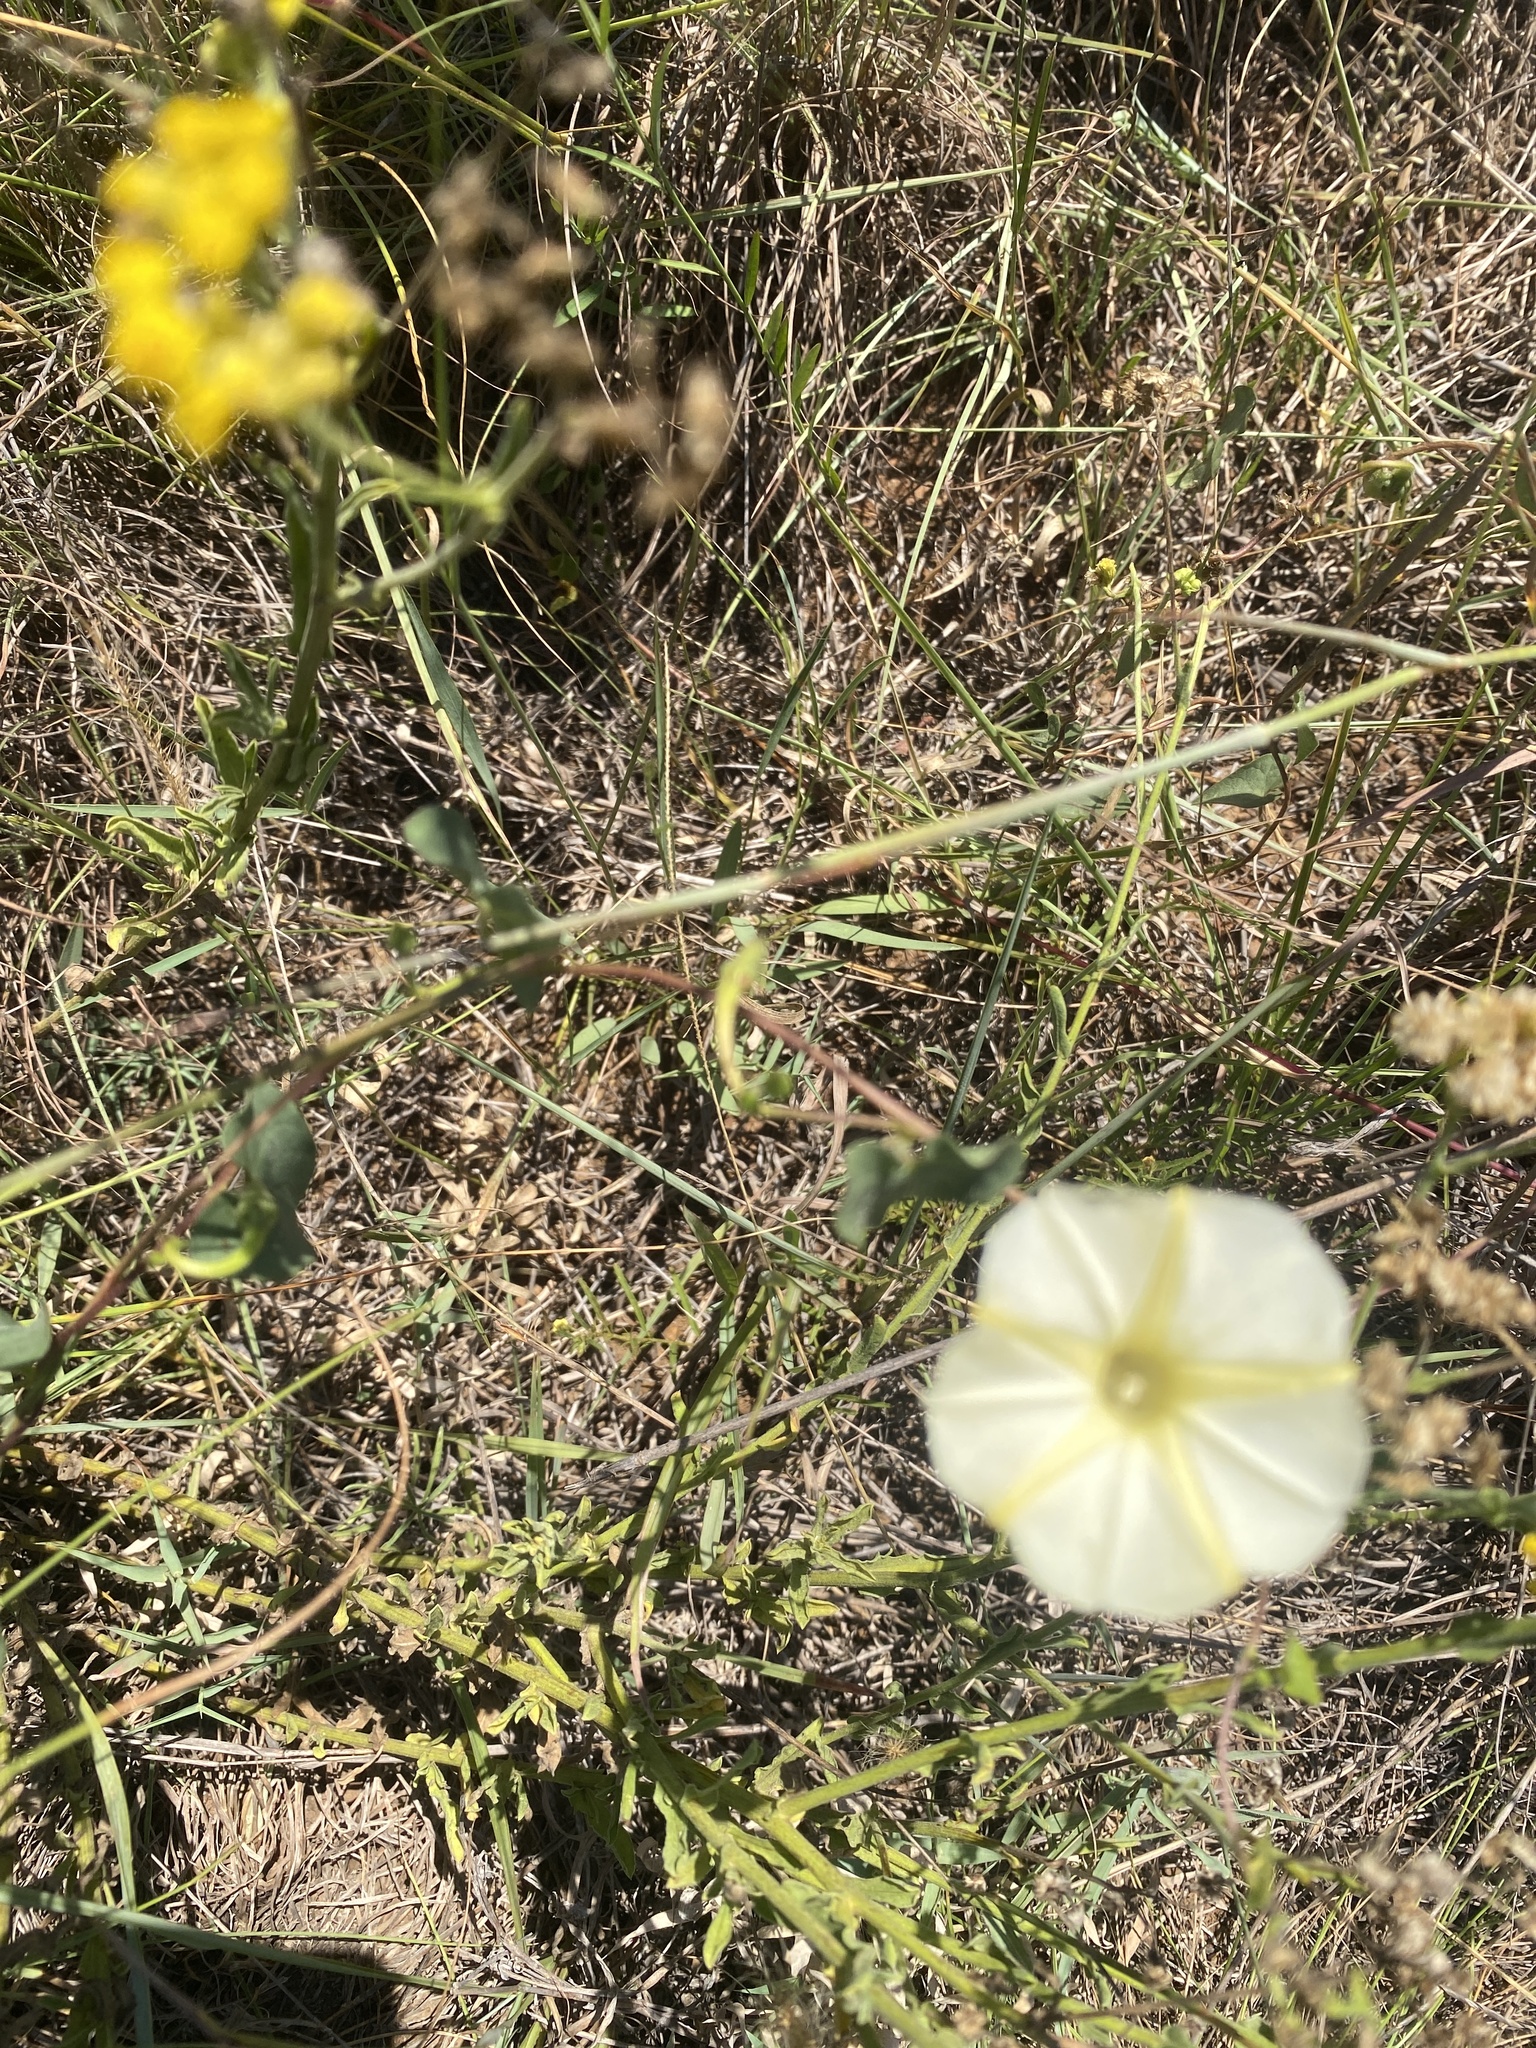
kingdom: Plantae
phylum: Tracheophyta
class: Magnoliopsida
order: Solanales
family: Convolvulaceae
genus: Ipomoea
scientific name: Ipomoea obscura
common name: Obscure morning-glory
